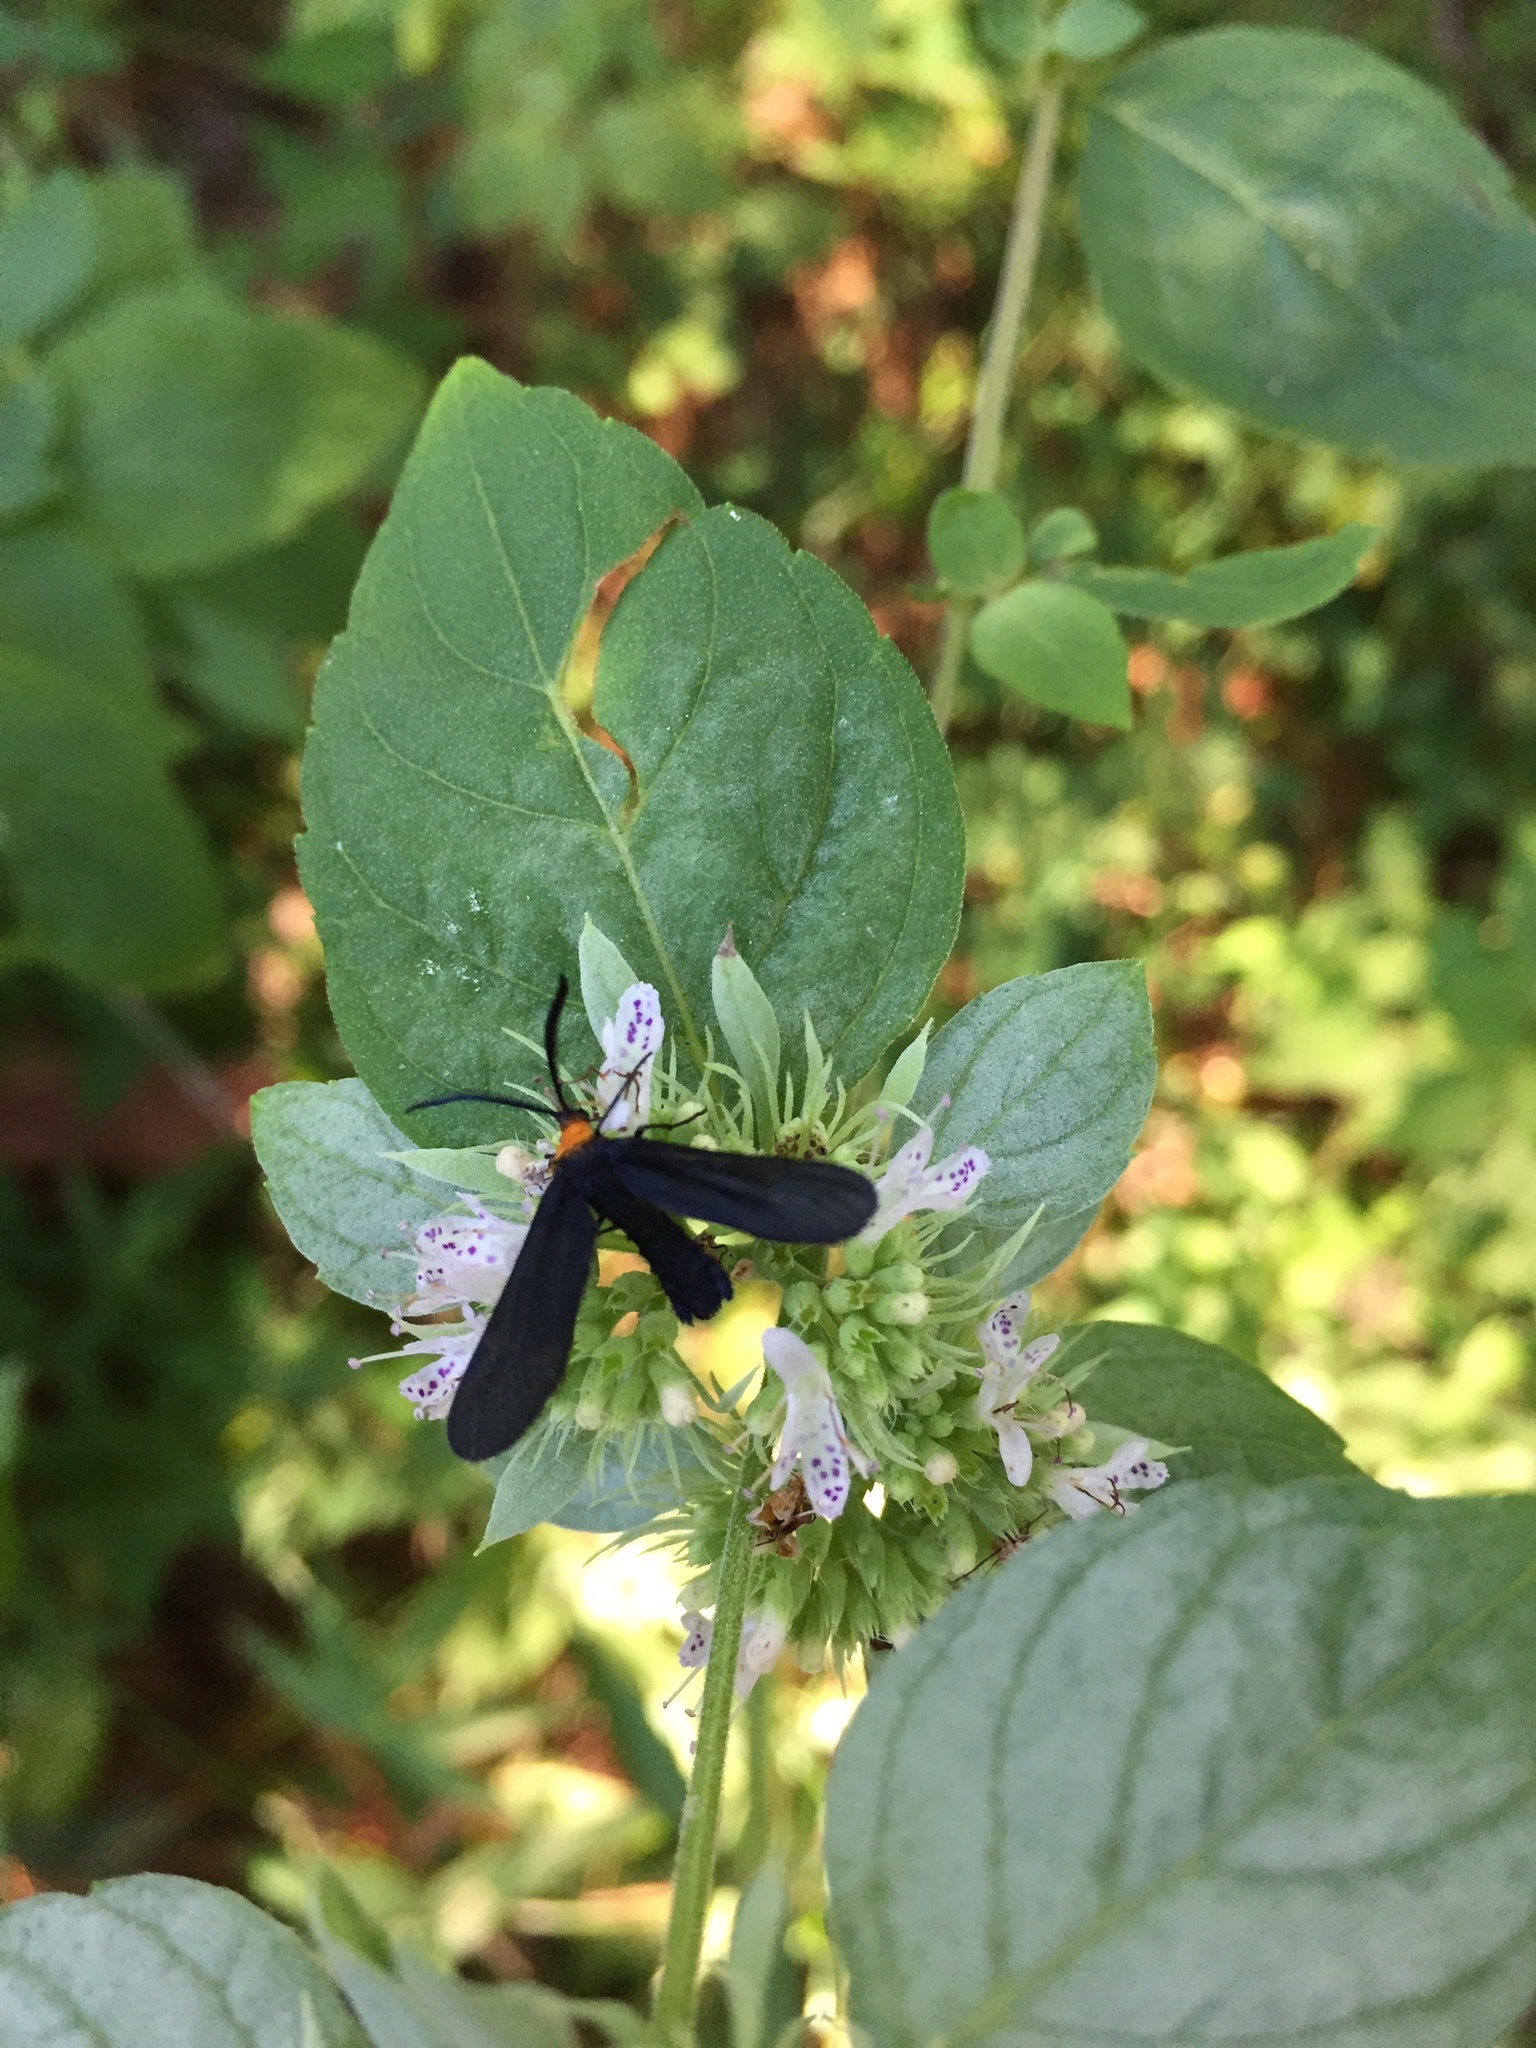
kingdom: Animalia
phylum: Arthropoda
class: Insecta
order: Lepidoptera
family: Zygaenidae
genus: Harrisina
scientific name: Harrisina americana
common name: Grapeleaf skeletonizer moth
